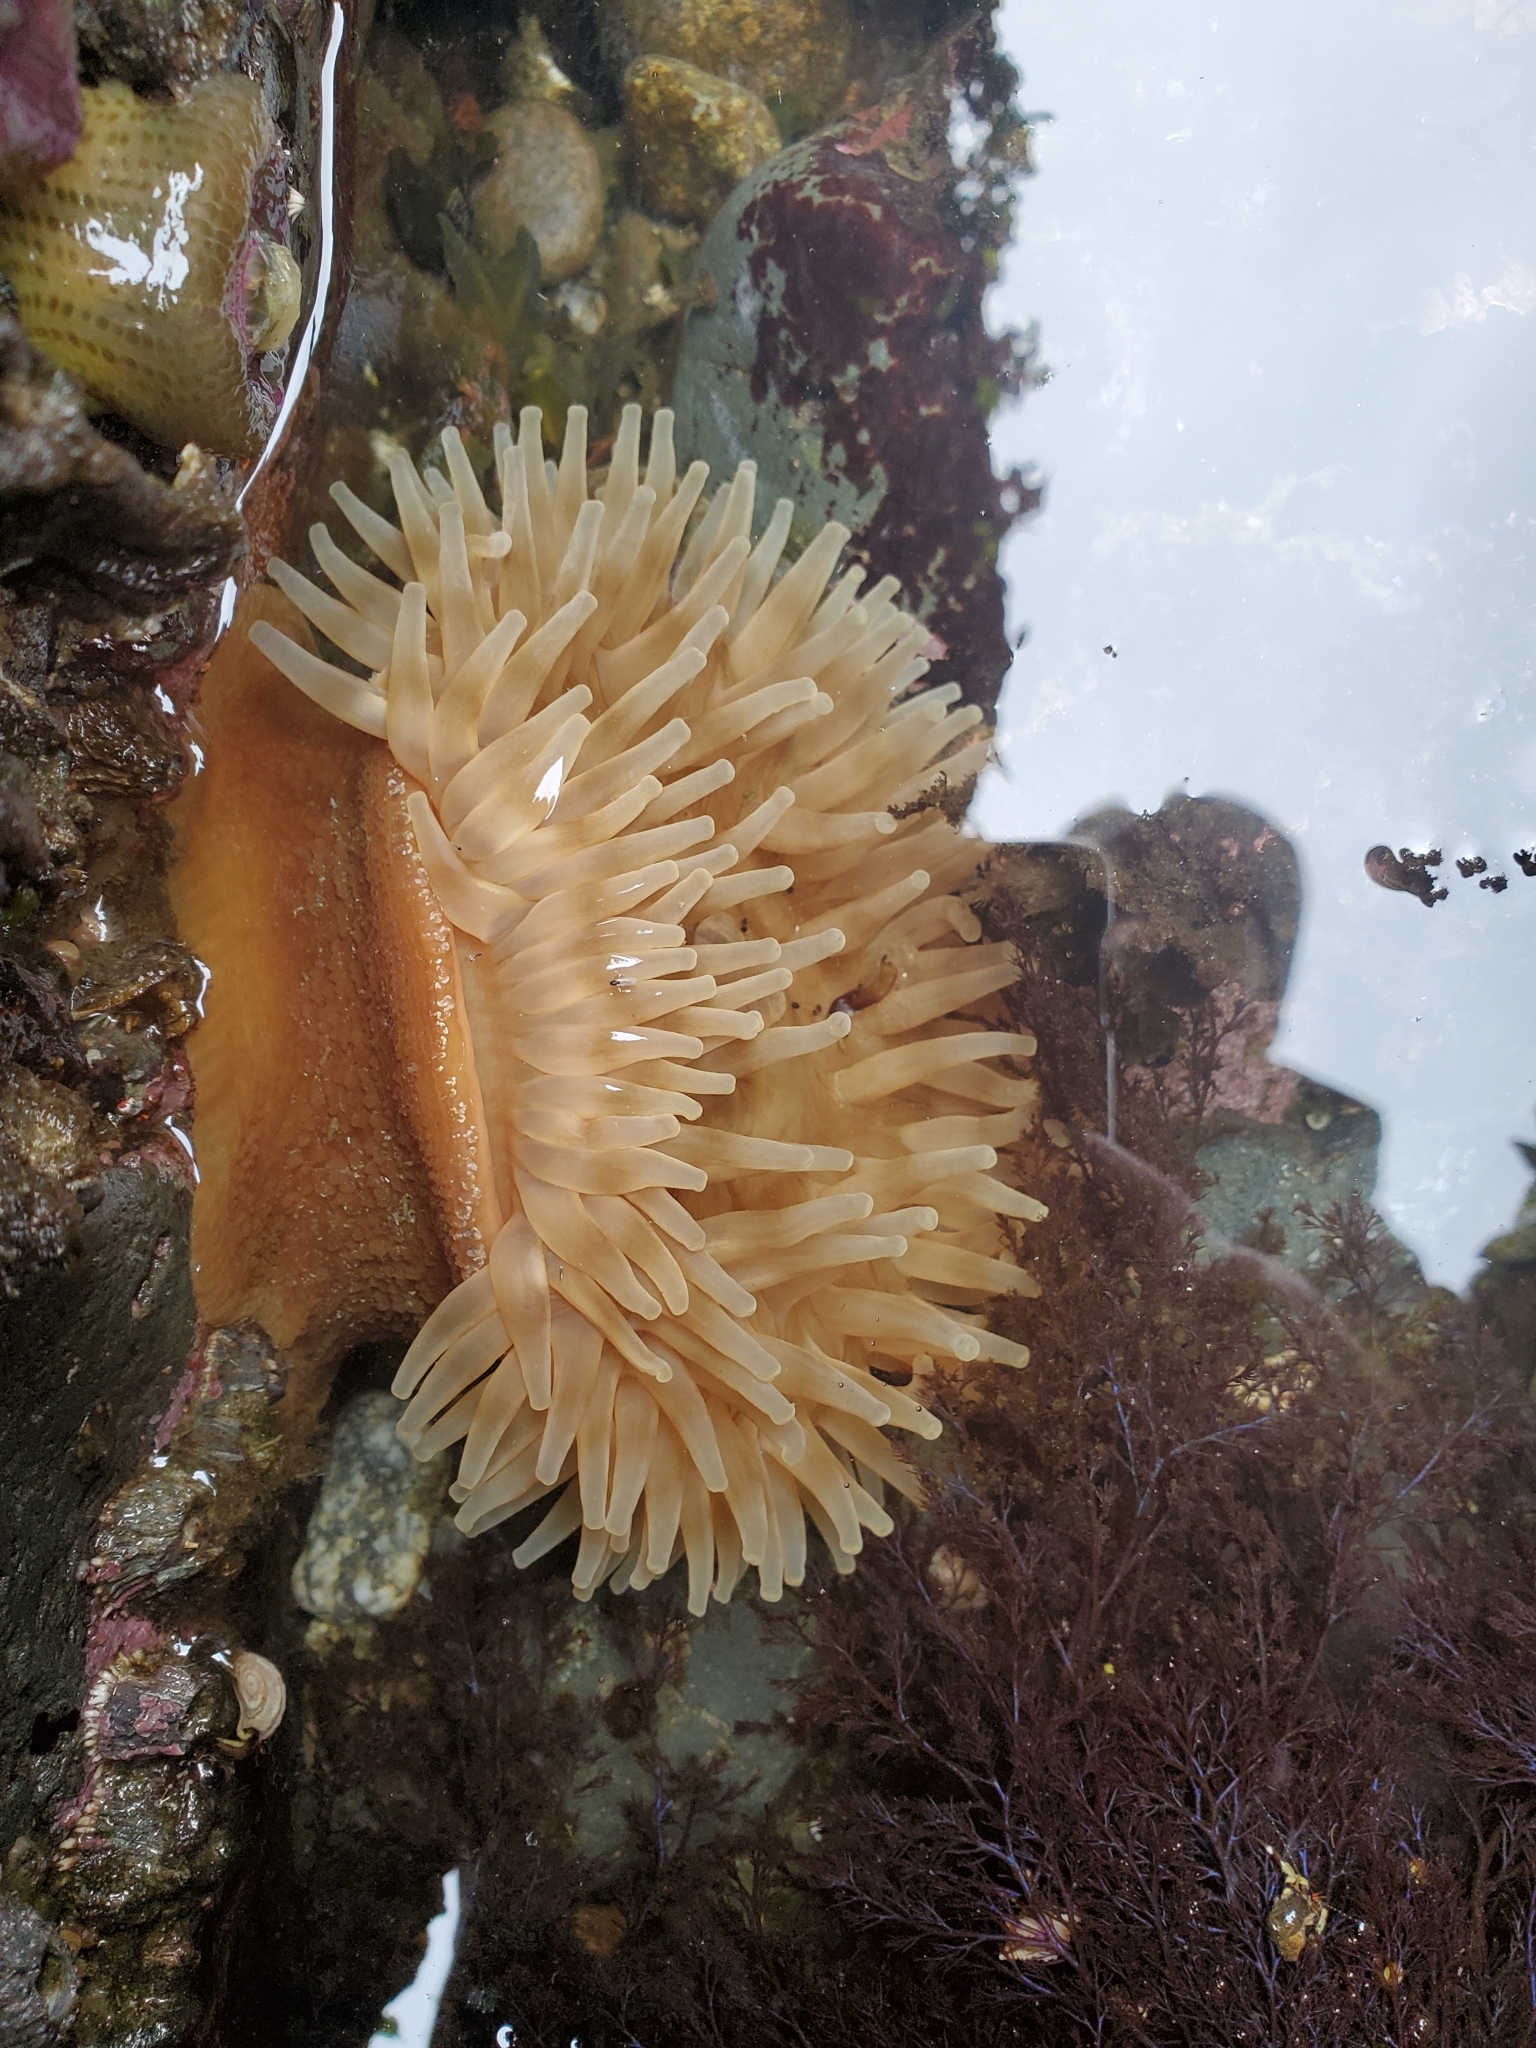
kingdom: Animalia
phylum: Cnidaria
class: Anthozoa
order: Actiniaria
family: Actiniidae
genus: Urticina
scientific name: Urticina grebelnyi
